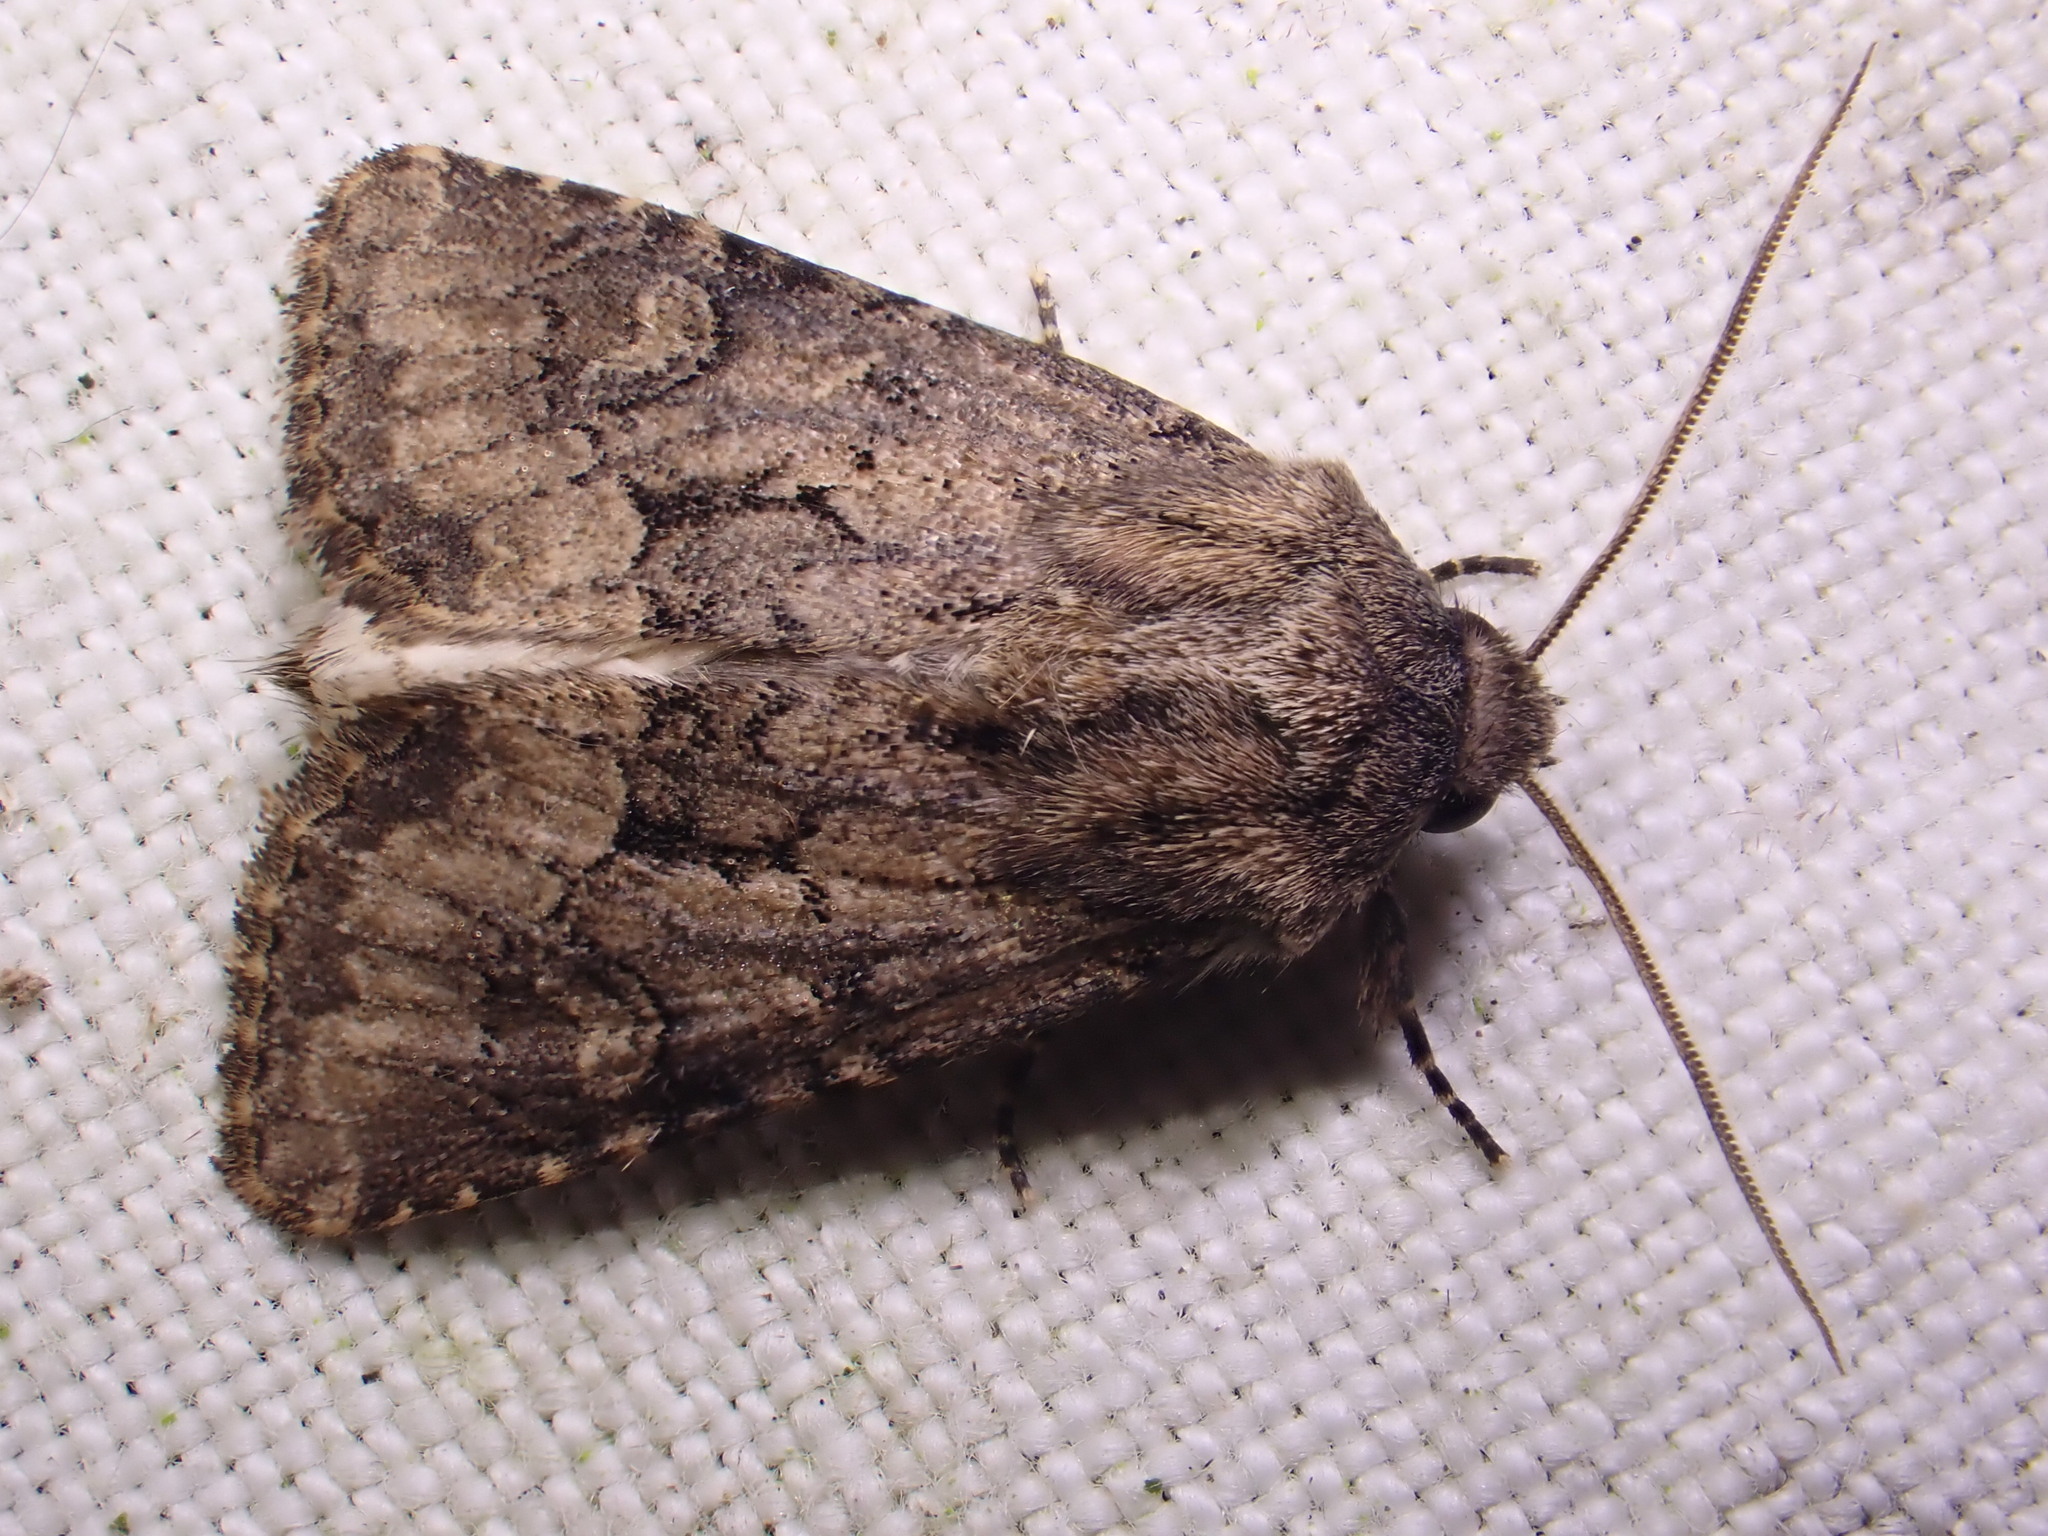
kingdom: Animalia
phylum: Arthropoda
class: Insecta
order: Lepidoptera
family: Noctuidae
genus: Luperina
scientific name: Luperina testacea
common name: Flounced rustic
